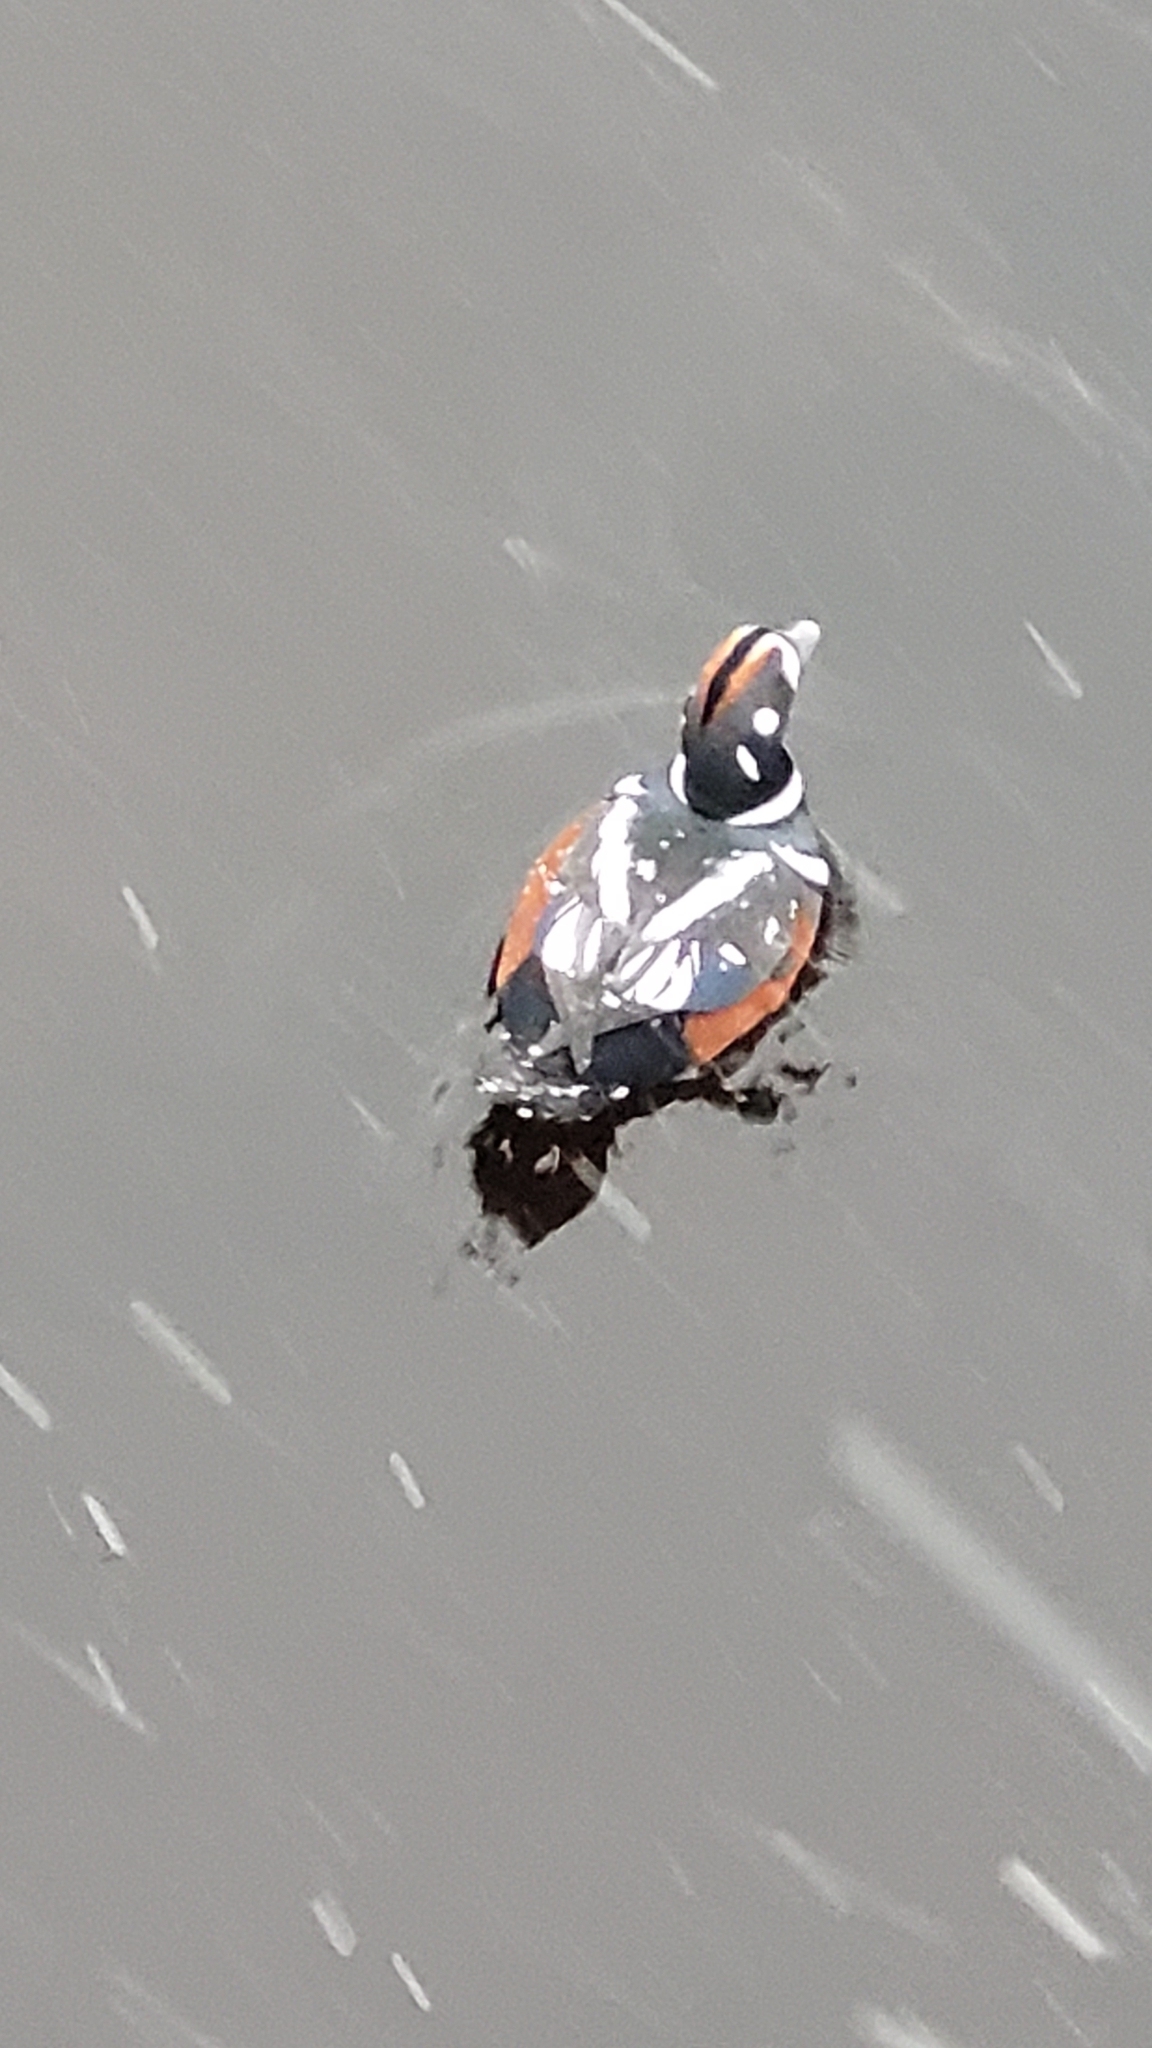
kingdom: Animalia
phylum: Chordata
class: Aves
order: Anseriformes
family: Anatidae
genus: Histrionicus
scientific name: Histrionicus histrionicus
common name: Harlequin duck
